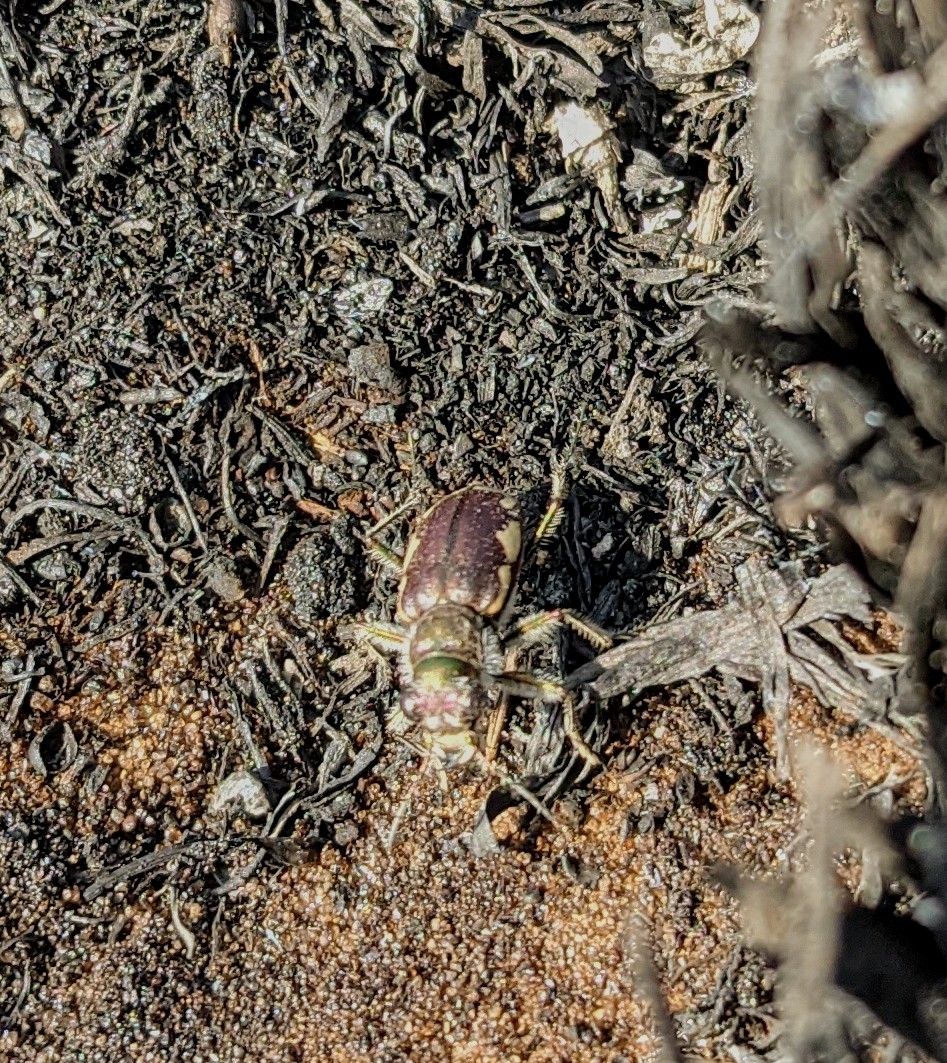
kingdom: Animalia
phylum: Arthropoda
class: Insecta
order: Coleoptera
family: Carabidae
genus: Cicindela
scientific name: Cicindela scutellaris
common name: Festive tiger beetle
